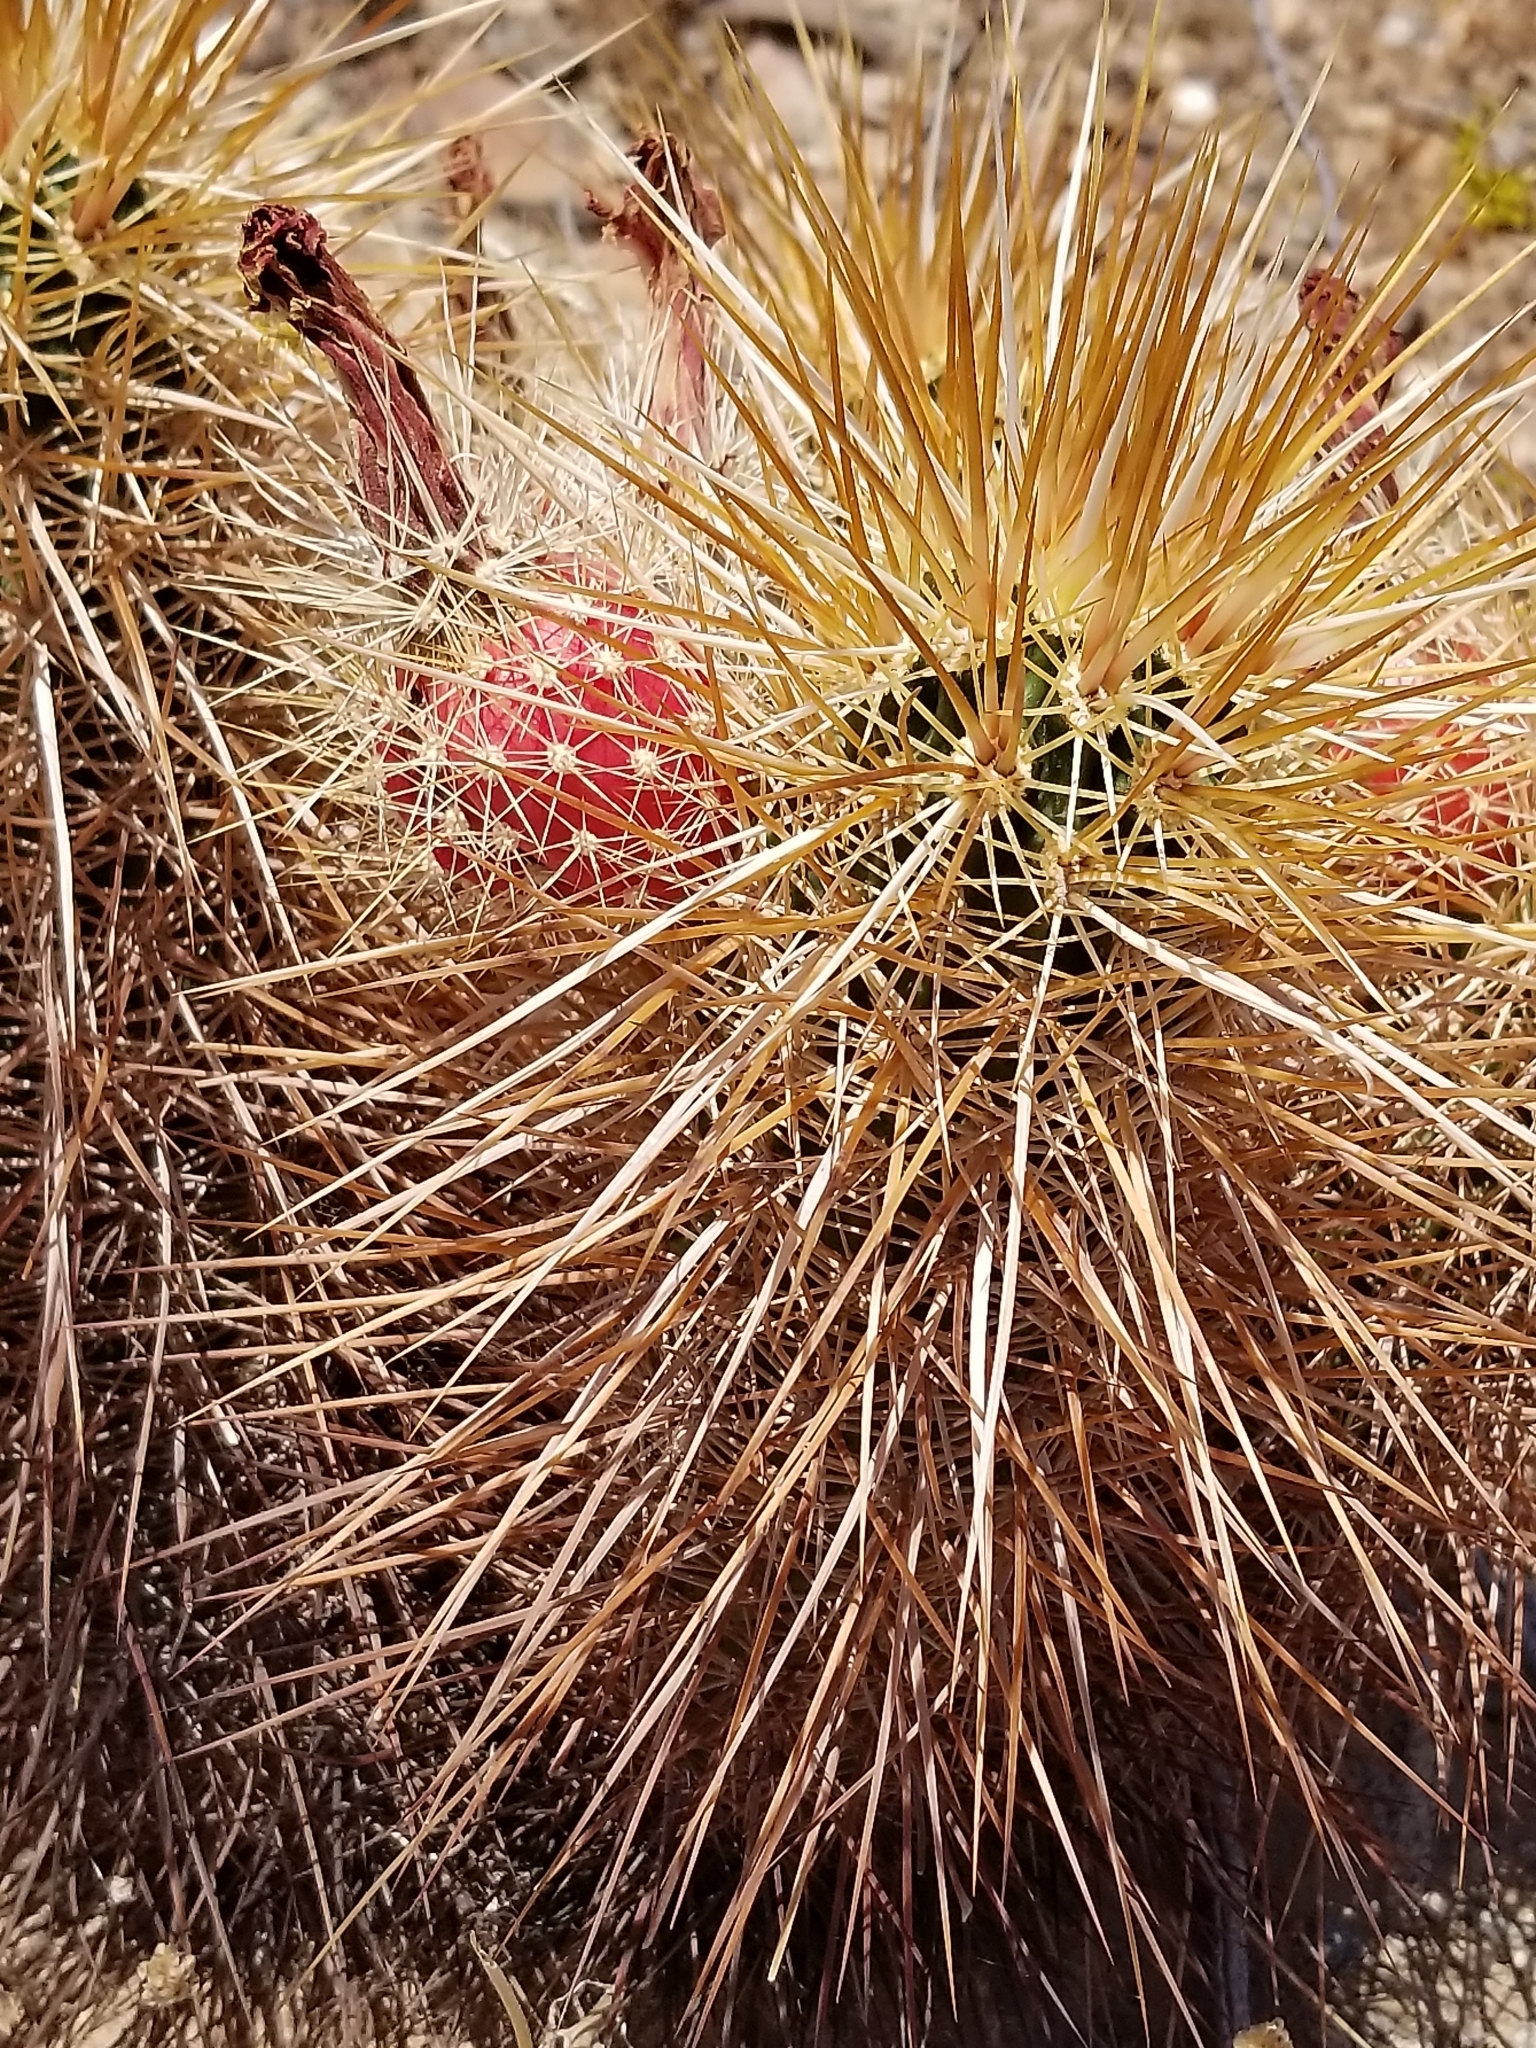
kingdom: Plantae
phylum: Tracheophyta
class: Magnoliopsida
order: Caryophyllales
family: Cactaceae
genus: Echinocereus
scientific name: Echinocereus engelmannii
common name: Engelmann's hedgehog cactus
